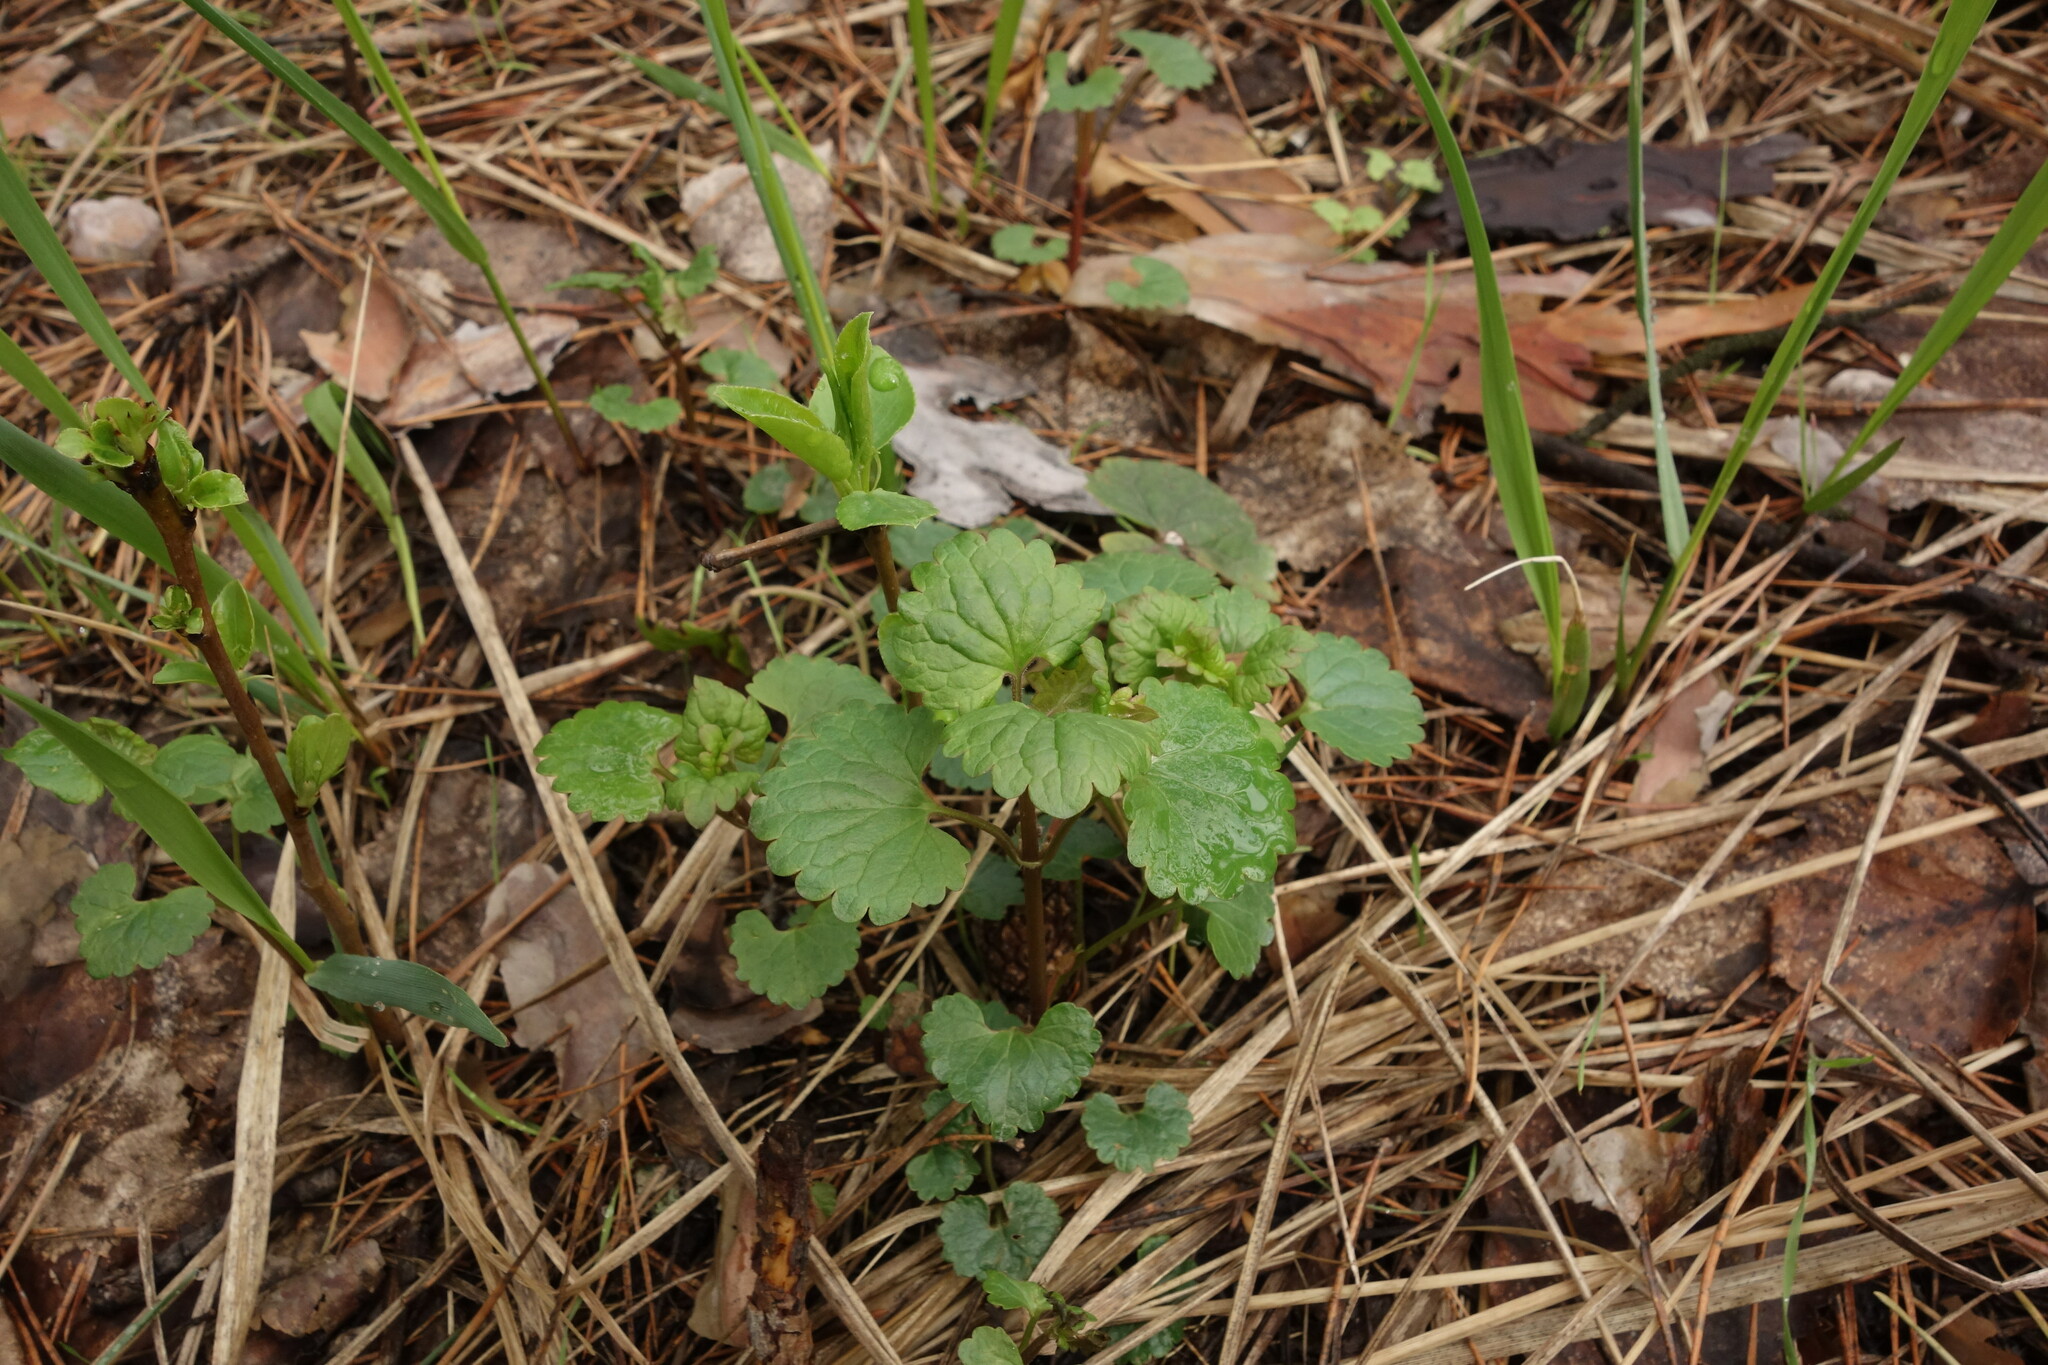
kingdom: Plantae
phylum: Tracheophyta
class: Magnoliopsida
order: Lamiales
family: Lamiaceae
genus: Glechoma
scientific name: Glechoma hederacea
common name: Ground ivy
